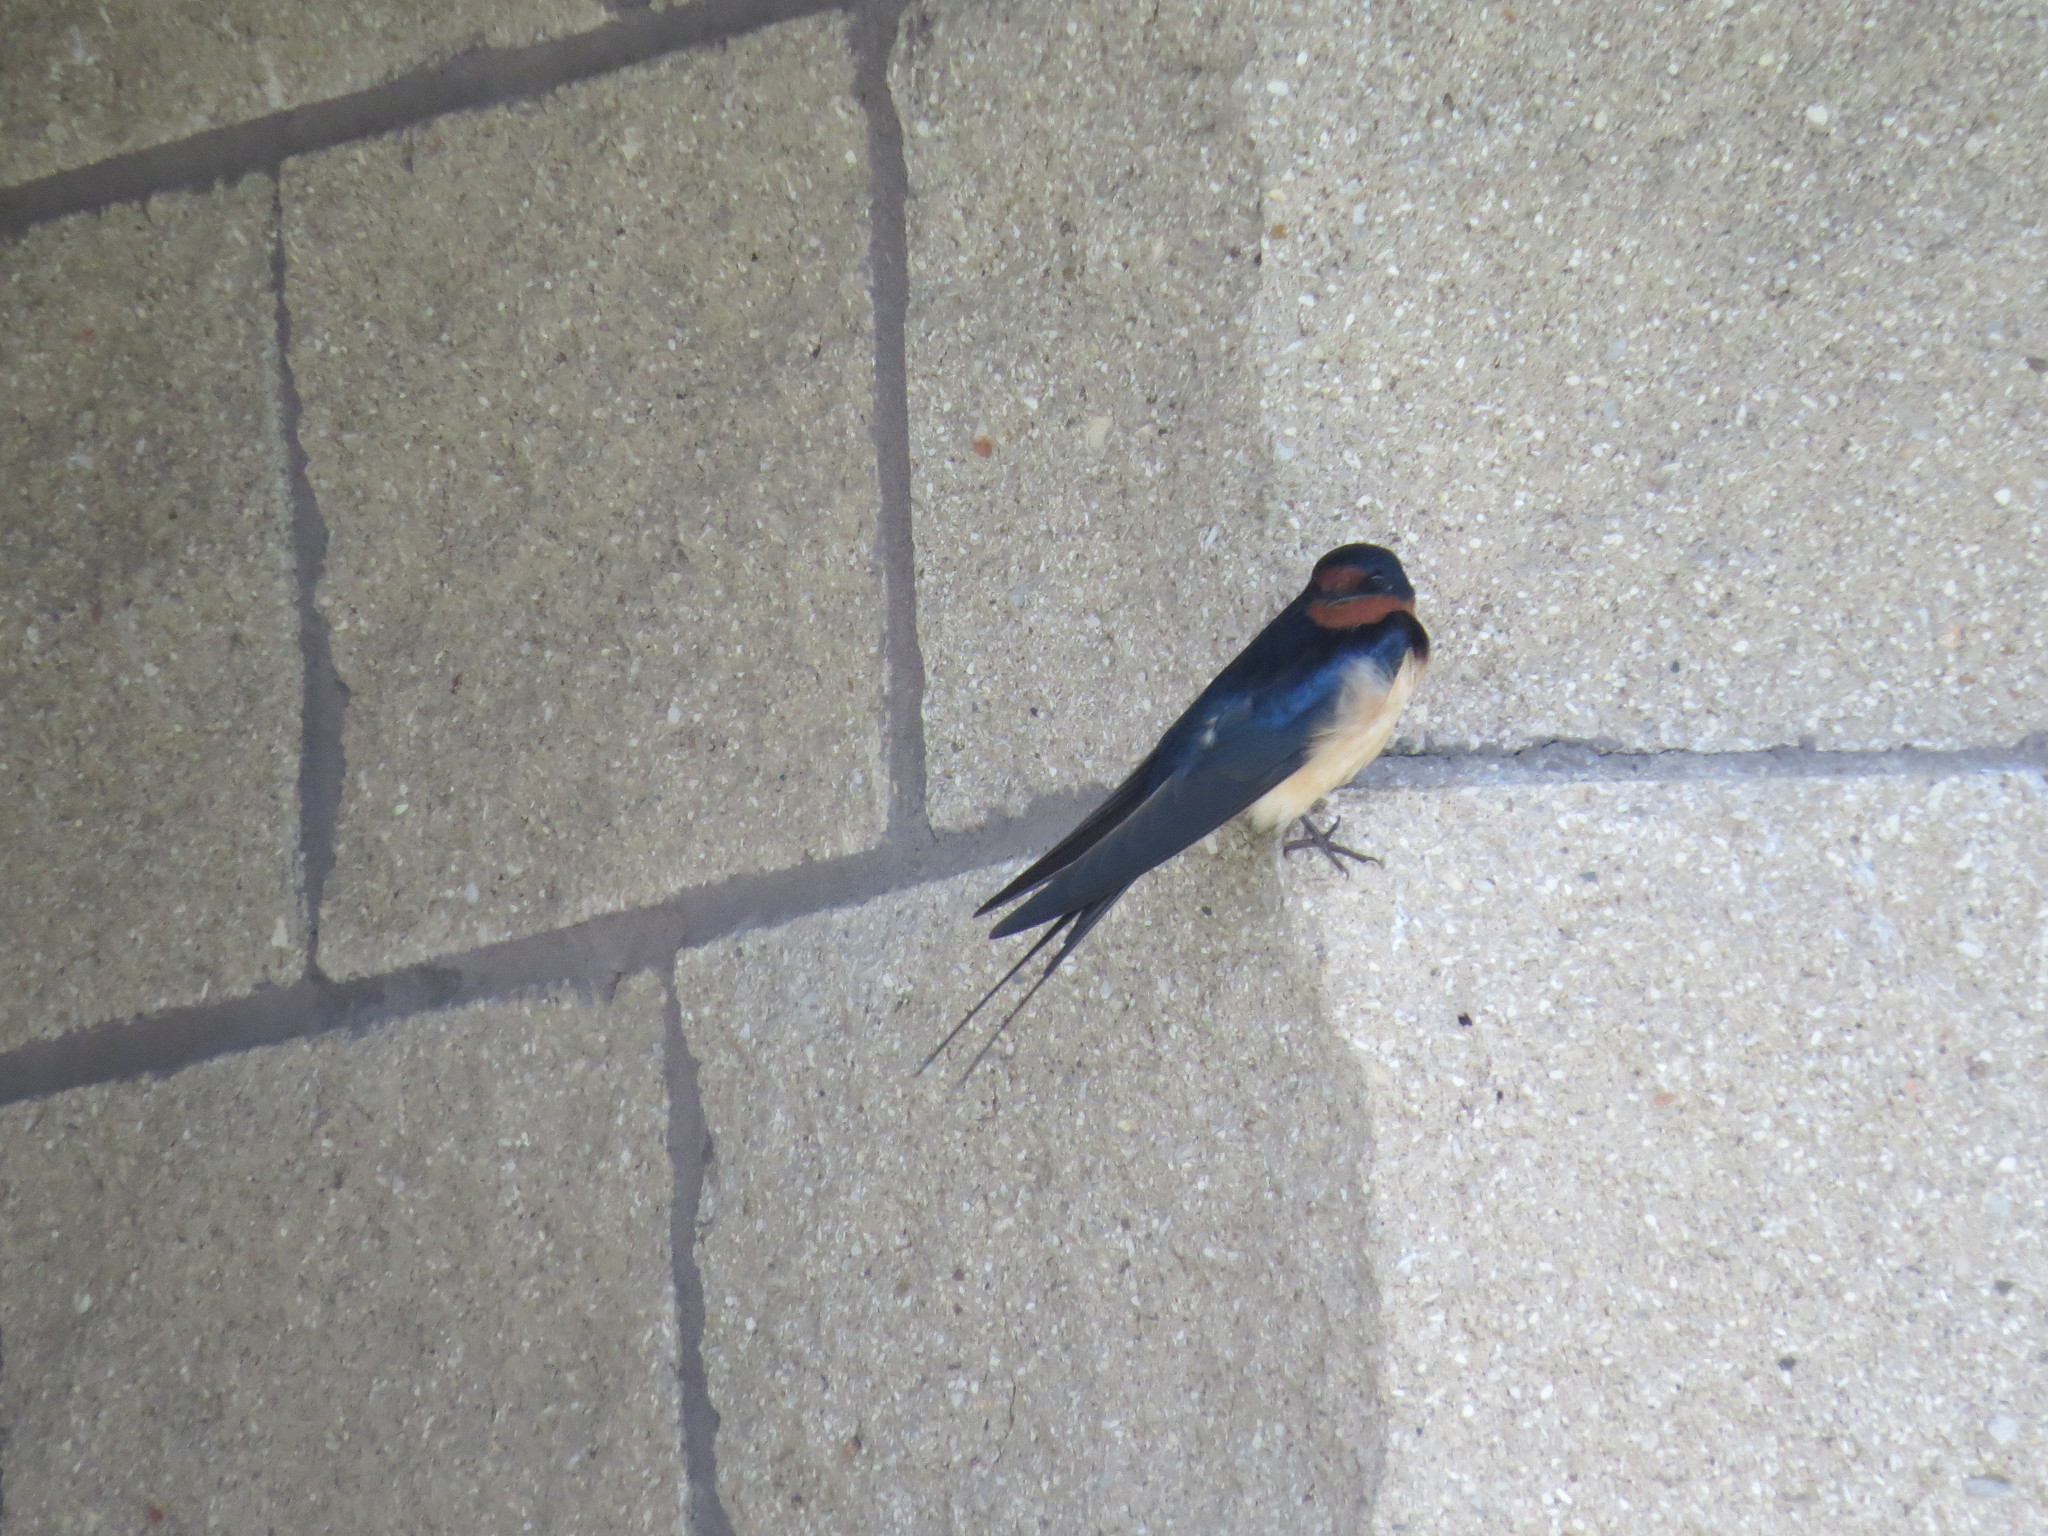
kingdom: Animalia
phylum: Chordata
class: Aves
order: Passeriformes
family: Hirundinidae
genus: Hirundo
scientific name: Hirundo rustica
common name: Barn swallow
